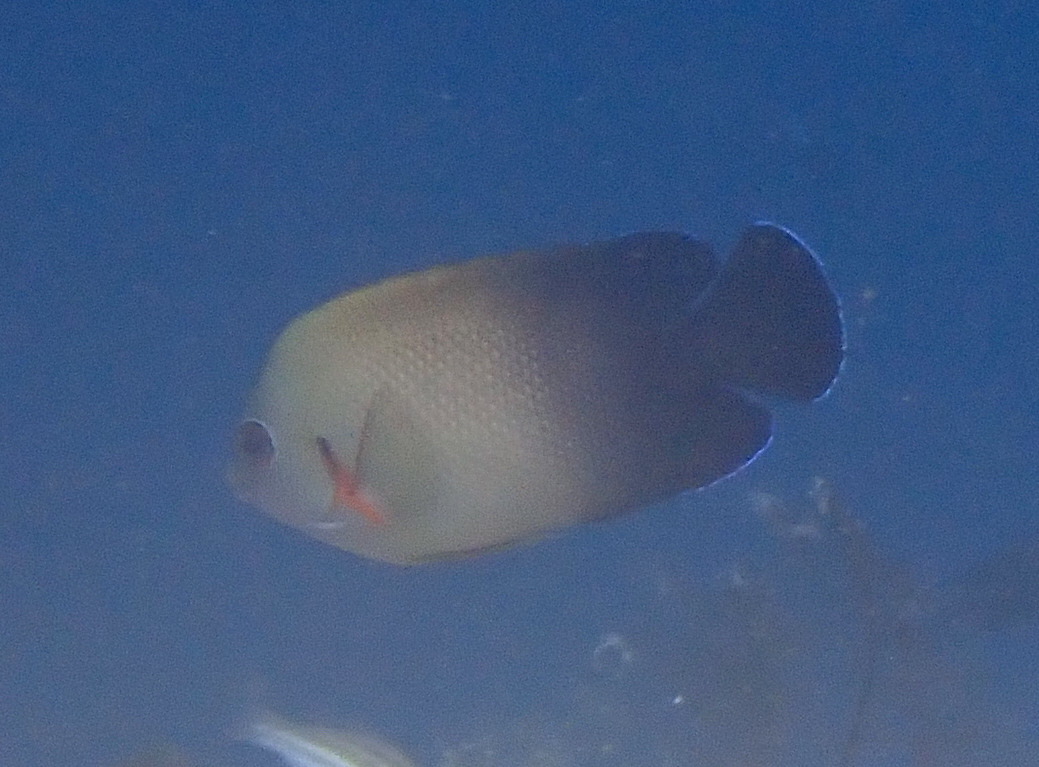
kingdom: Animalia
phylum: Chordata
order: Perciformes
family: Pomacanthidae
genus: Centropyge
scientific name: Centropyge vrolikii
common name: Pearlscale angelfish
